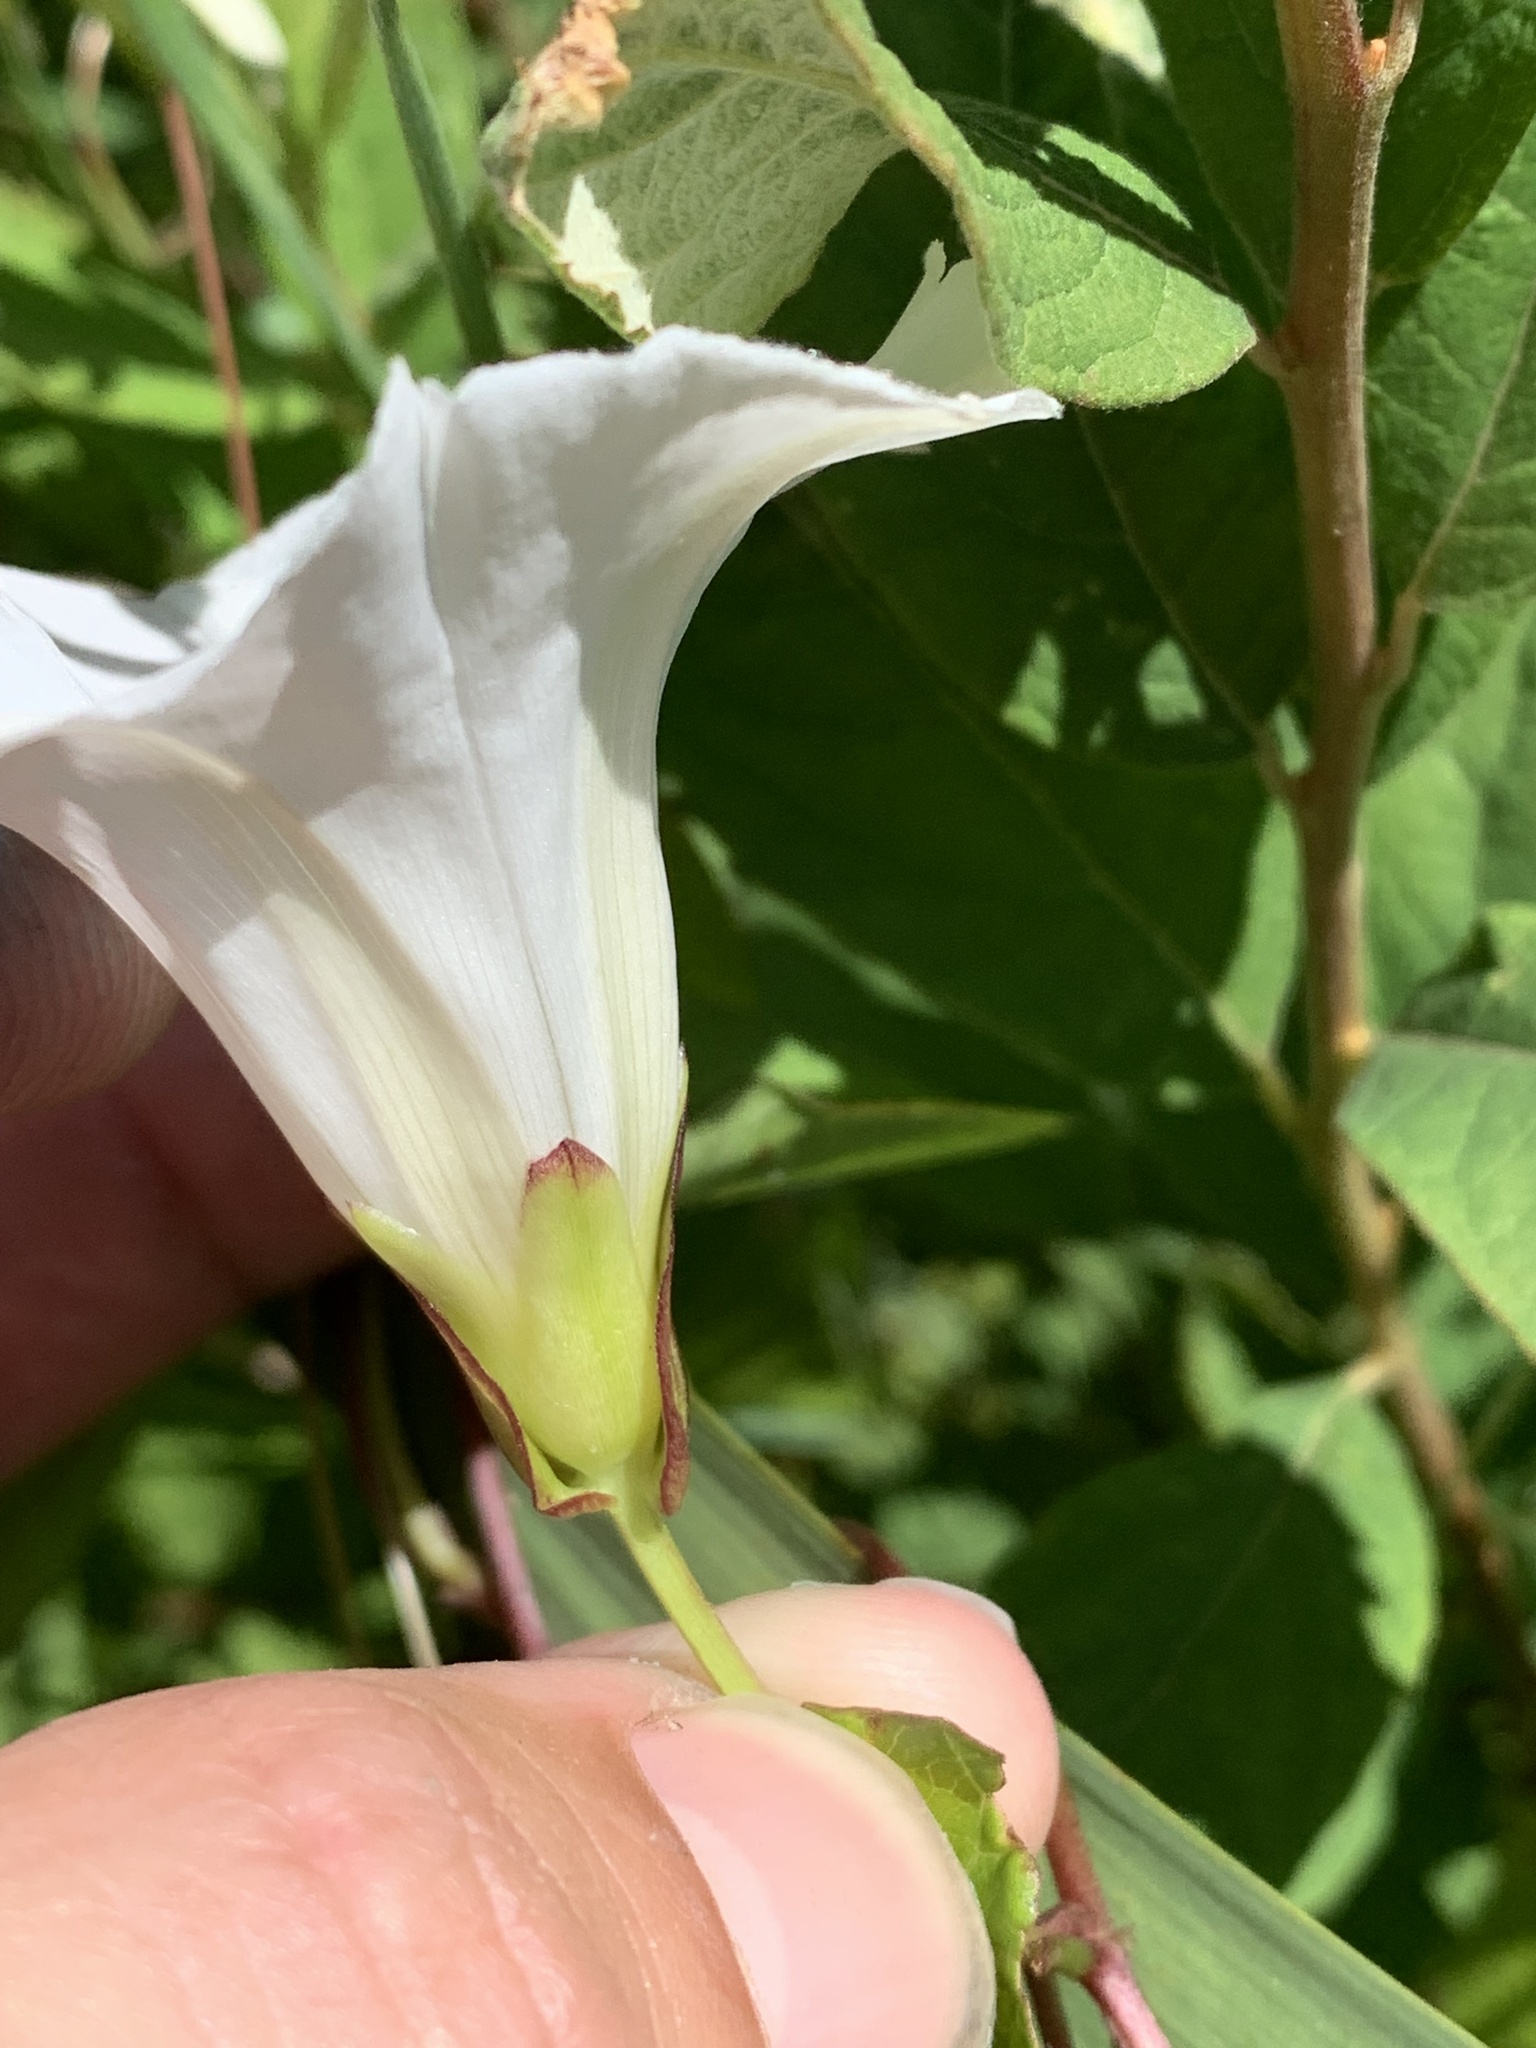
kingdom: Plantae
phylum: Tracheophyta
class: Magnoliopsida
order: Solanales
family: Convolvulaceae
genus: Calystegia
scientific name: Calystegia sepium
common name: Hedge bindweed
